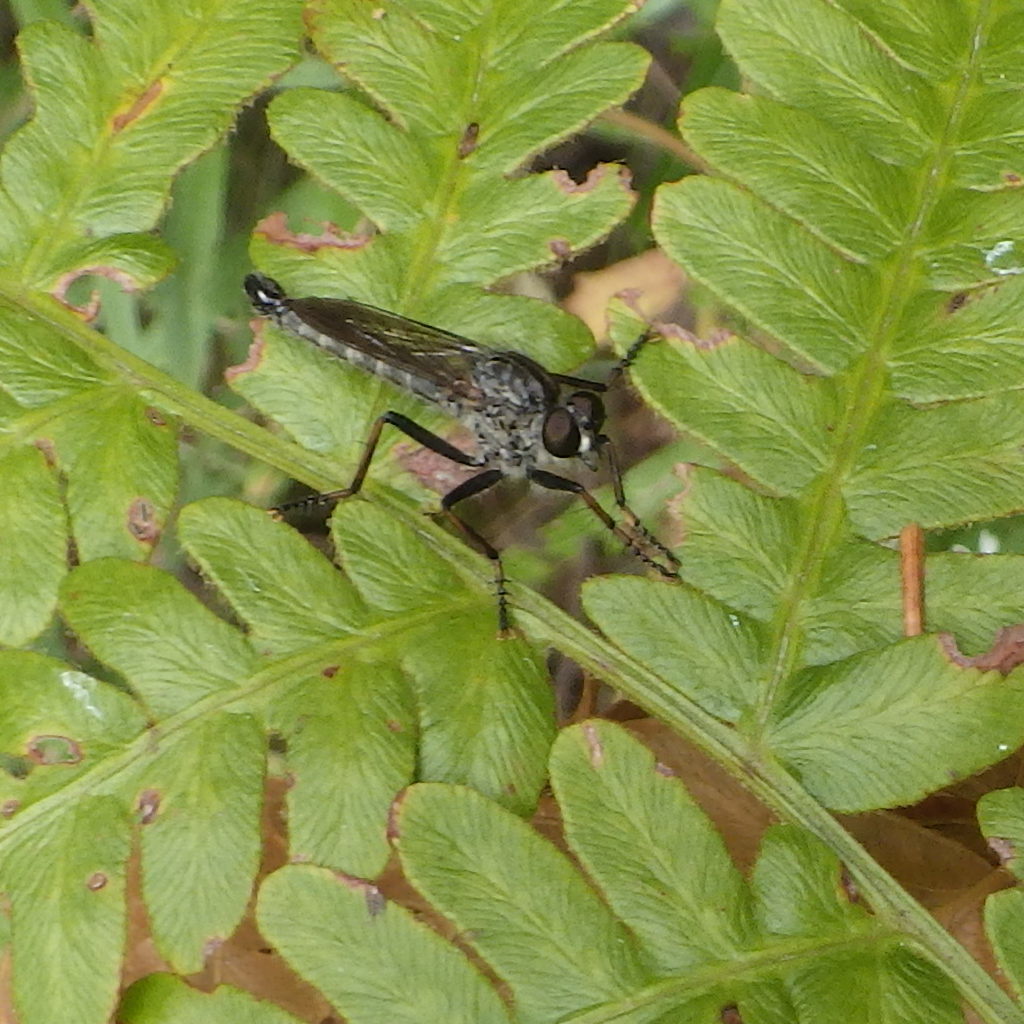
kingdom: Animalia
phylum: Arthropoda
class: Insecta
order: Diptera
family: Asilidae
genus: Machimus
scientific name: Machimus sadyates
